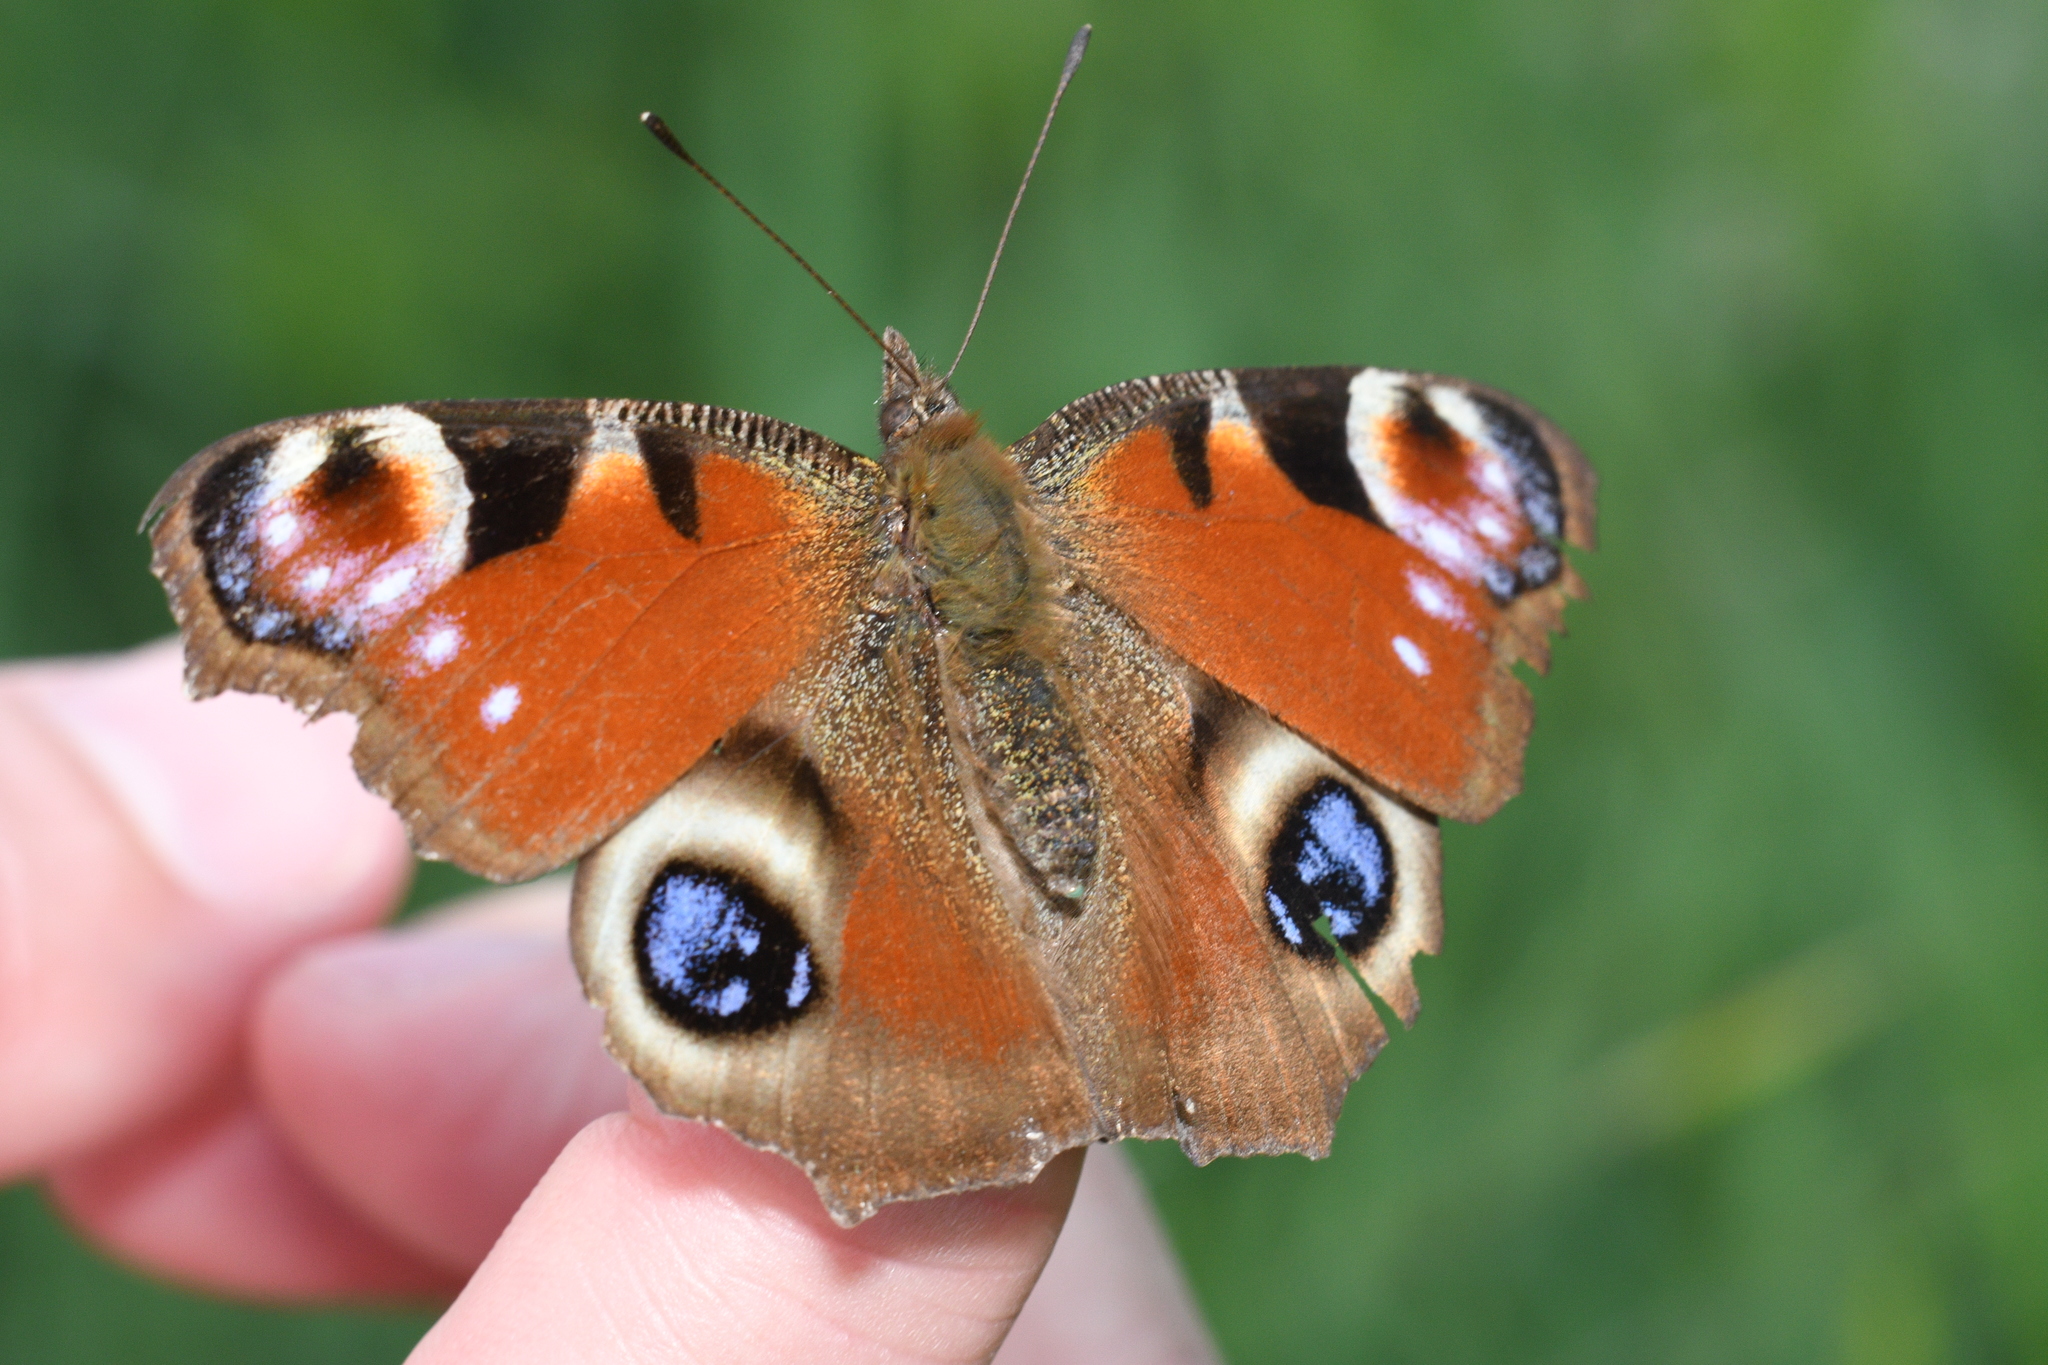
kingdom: Animalia
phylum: Arthropoda
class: Insecta
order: Lepidoptera
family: Nymphalidae
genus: Aglais
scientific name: Aglais io
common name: Peacock
